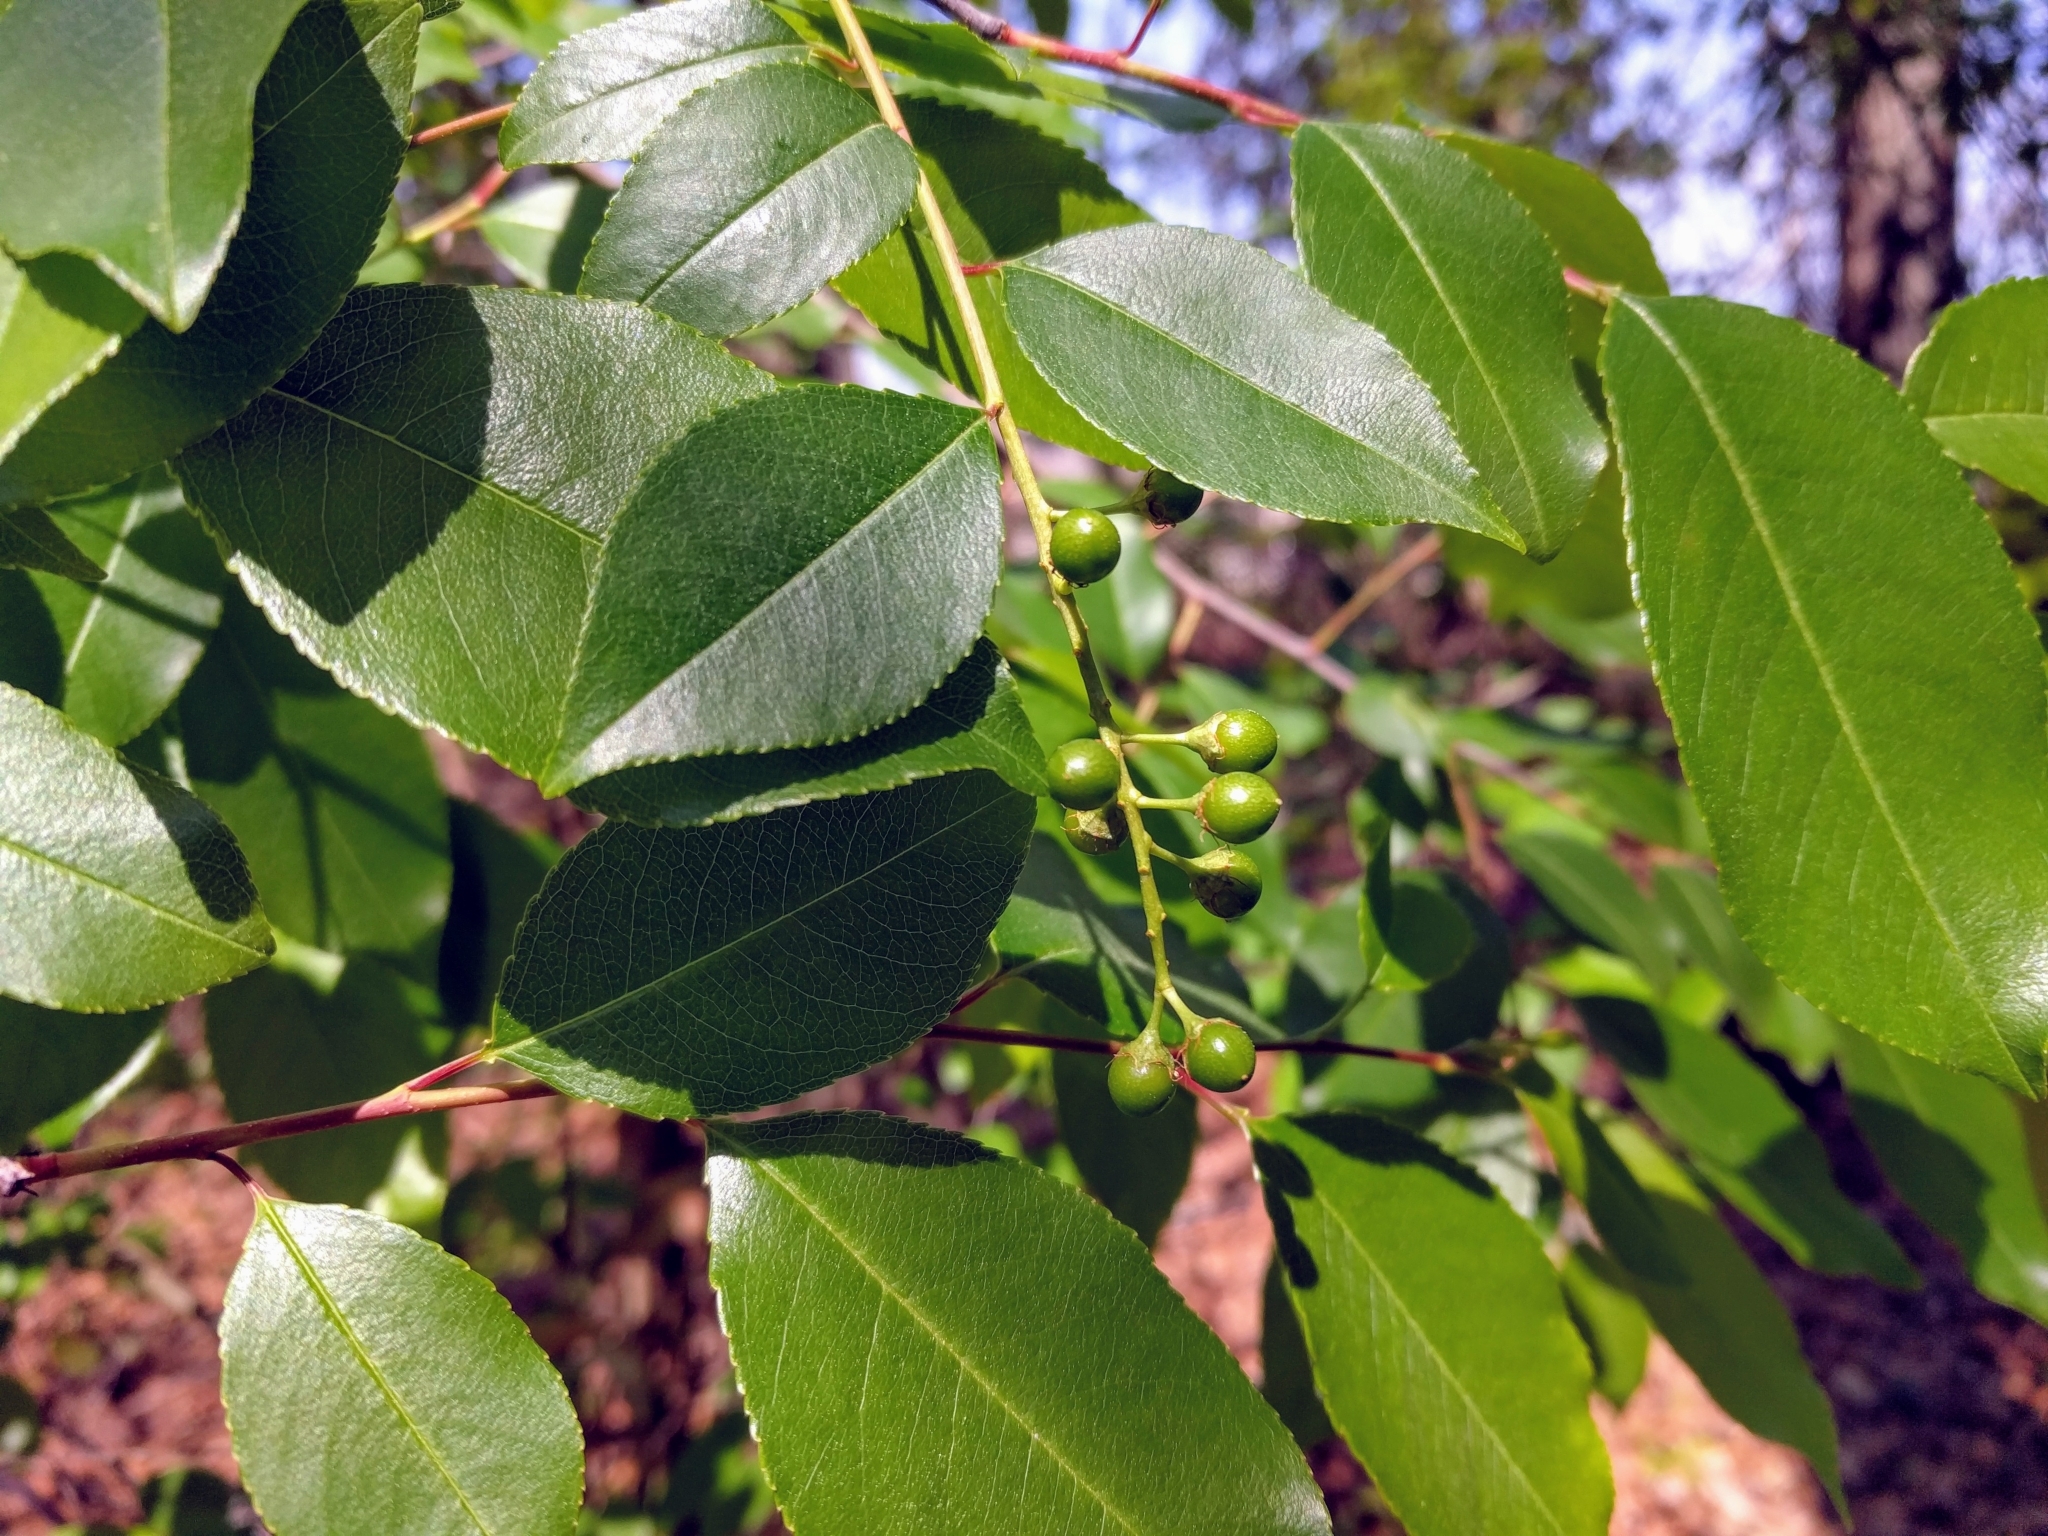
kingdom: Plantae
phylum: Tracheophyta
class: Magnoliopsida
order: Rosales
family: Rosaceae
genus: Prunus
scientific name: Prunus serotina
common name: Black cherry
